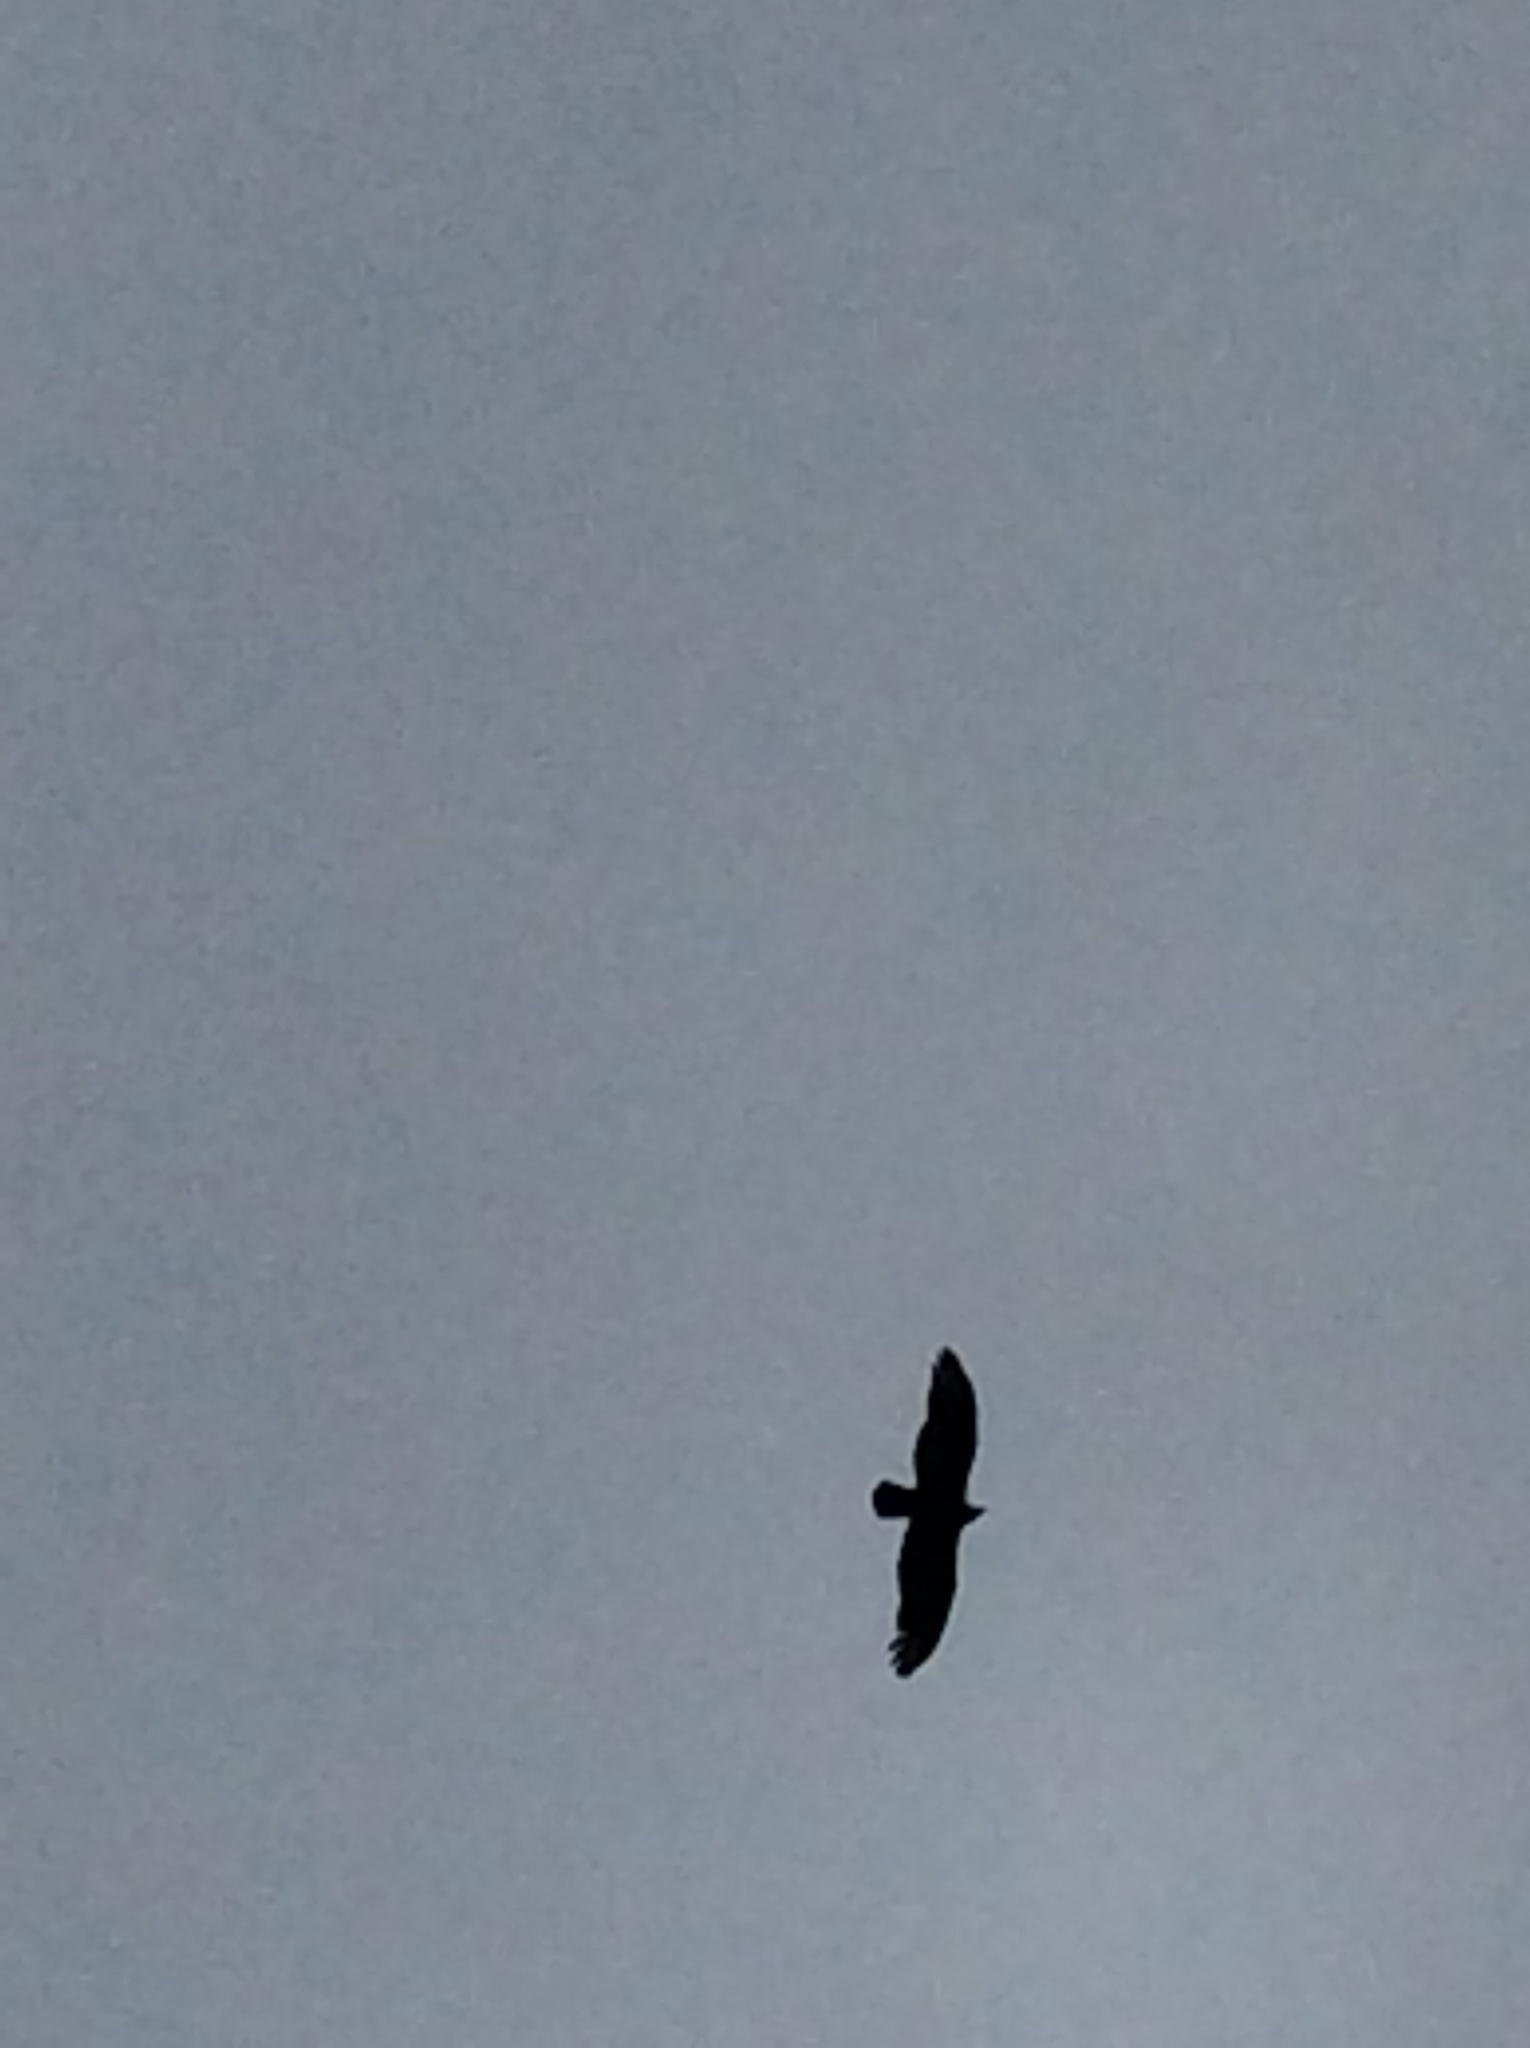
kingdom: Animalia
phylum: Chordata
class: Aves
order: Accipitriformes
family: Cathartidae
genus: Cathartes
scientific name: Cathartes aura
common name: Turkey vulture
